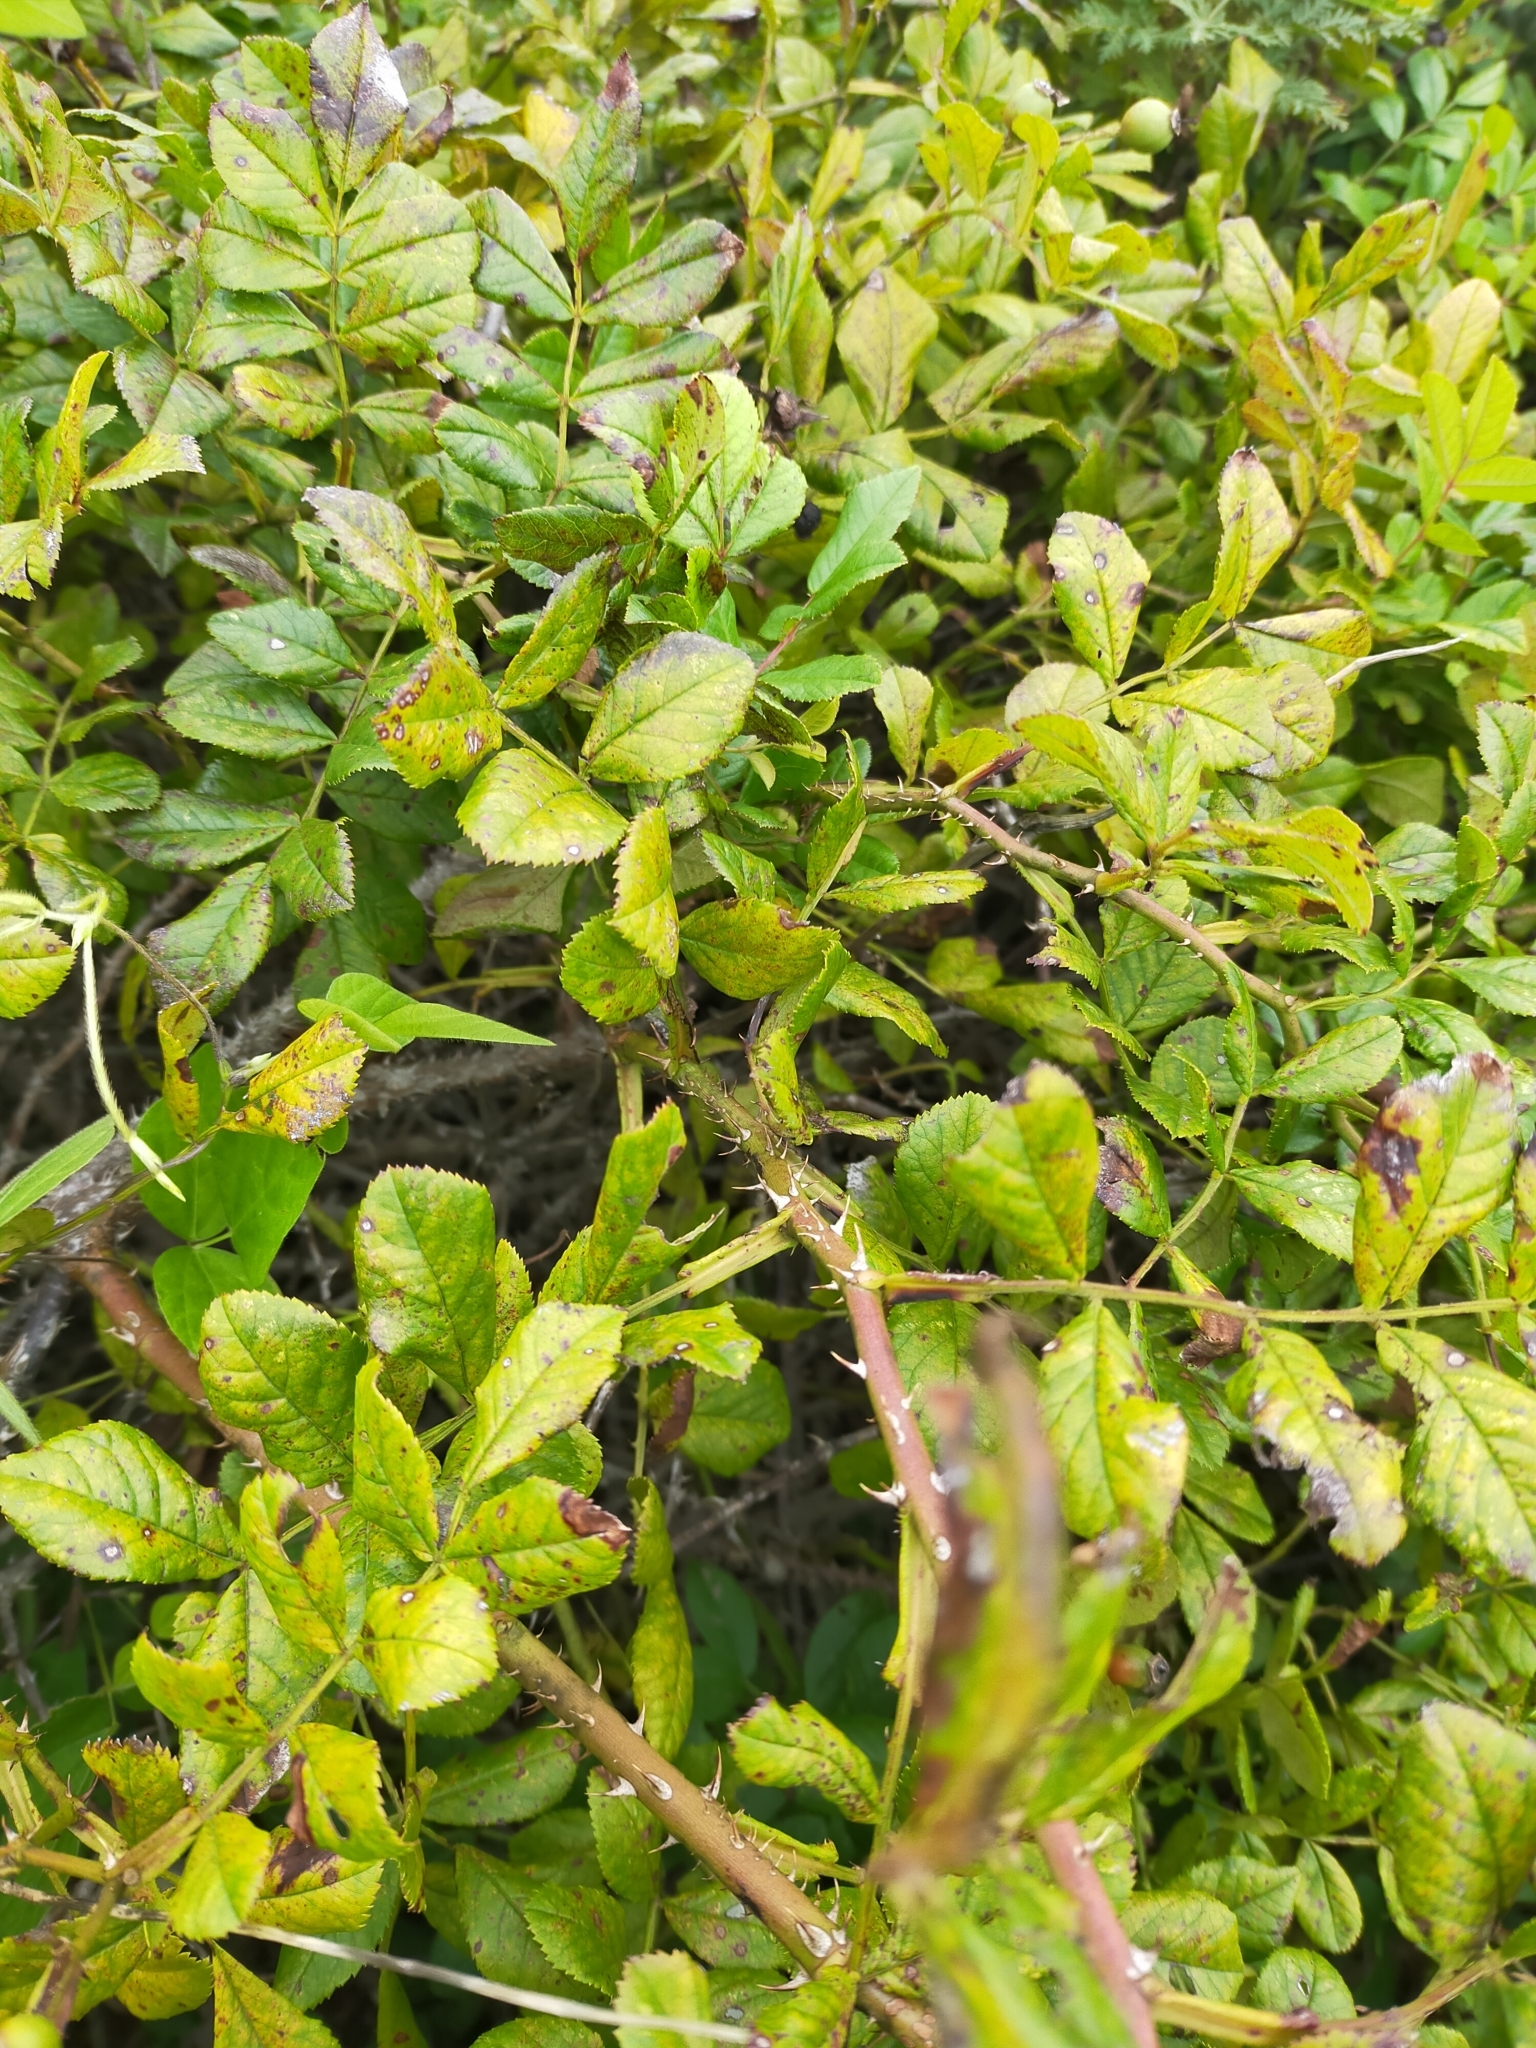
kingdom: Plantae
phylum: Tracheophyta
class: Magnoliopsida
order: Rosales
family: Rosaceae
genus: Rosa
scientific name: Rosa maximowicziana
